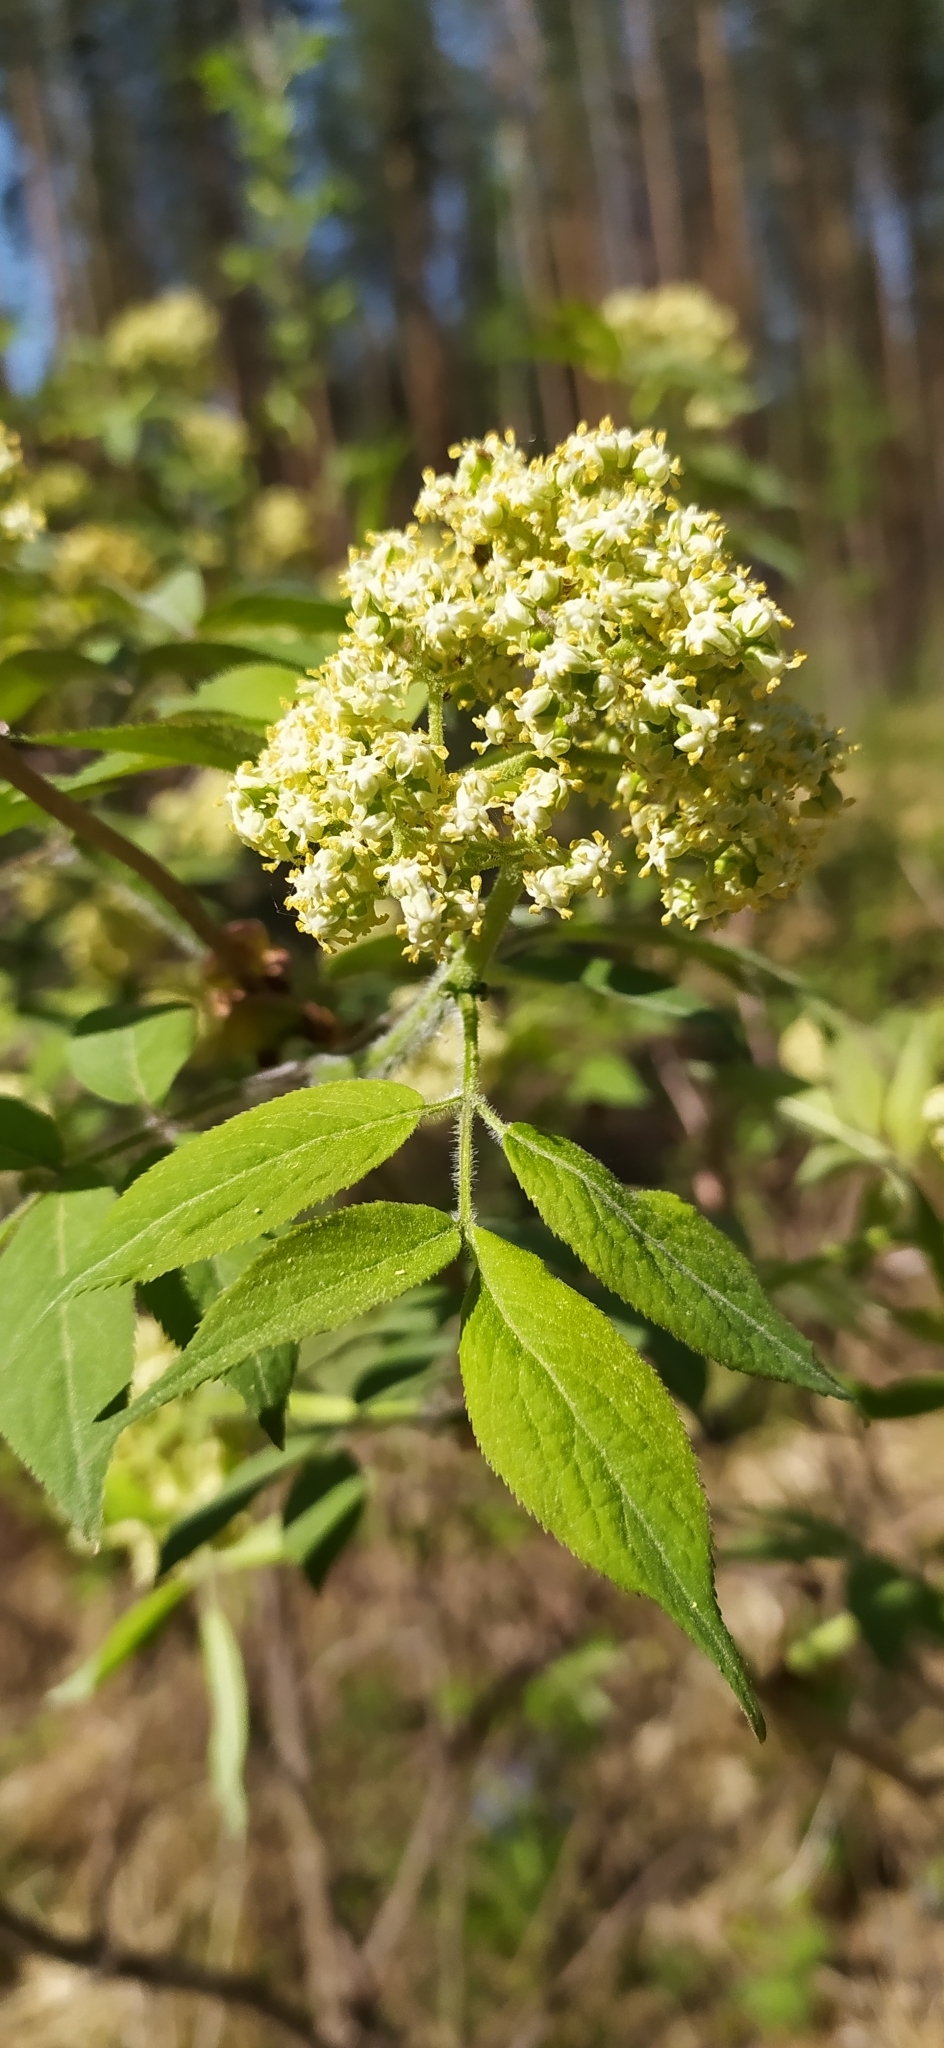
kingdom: Plantae
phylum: Tracheophyta
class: Magnoliopsida
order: Dipsacales
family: Viburnaceae
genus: Sambucus
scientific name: Sambucus sibirica
